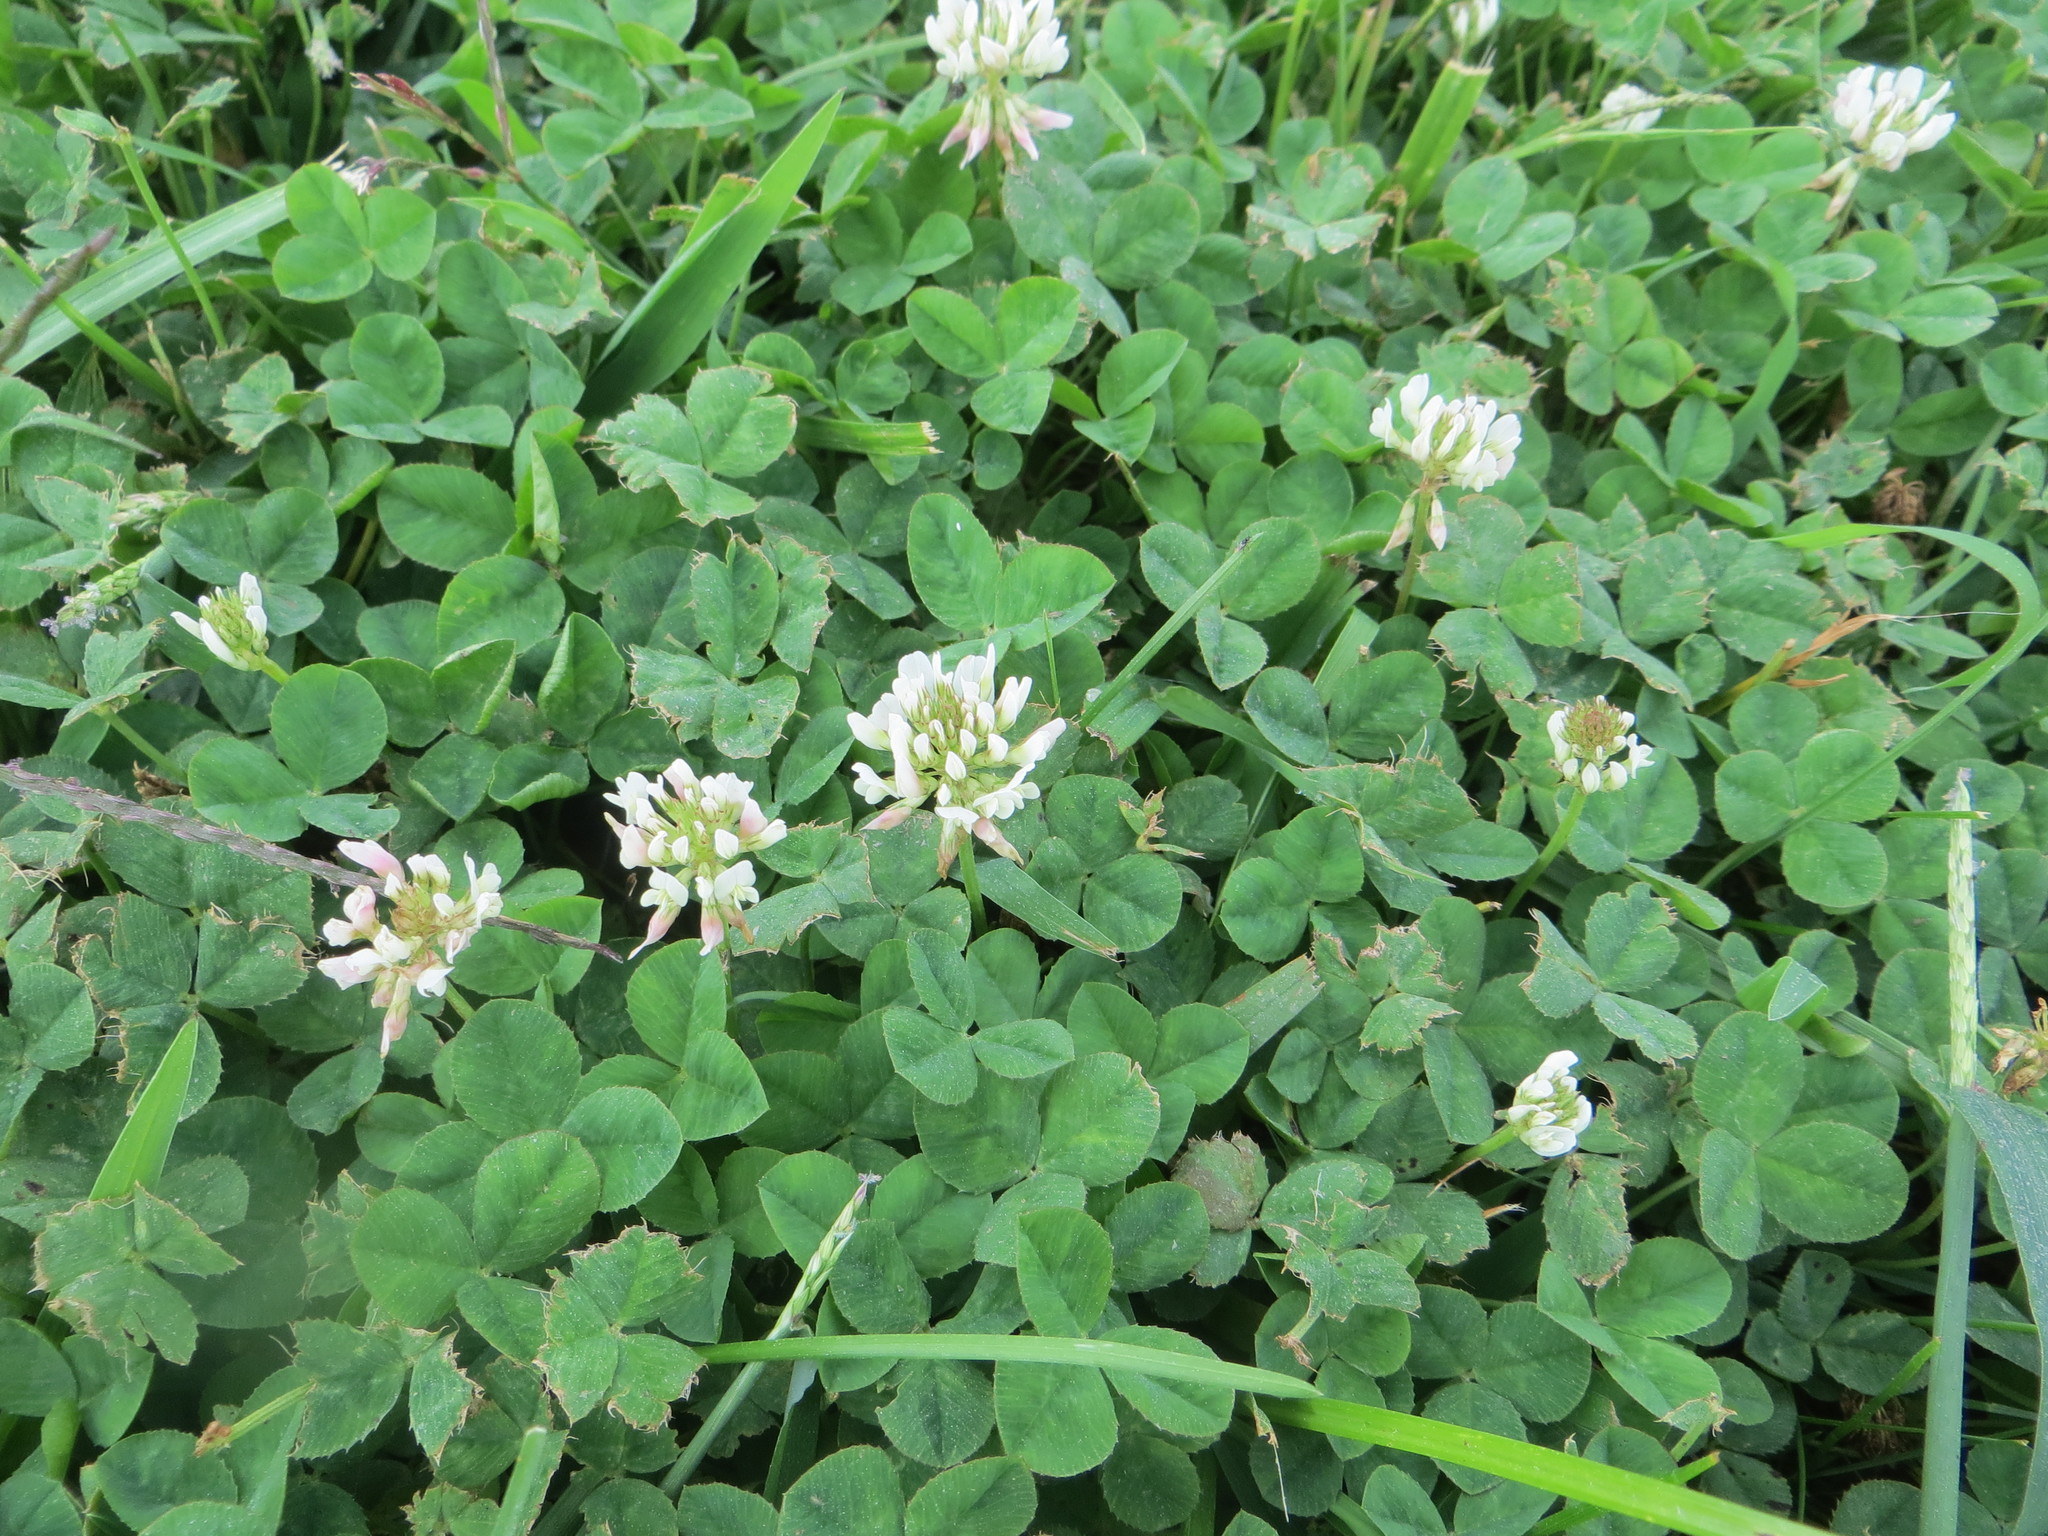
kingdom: Plantae
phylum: Tracheophyta
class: Magnoliopsida
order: Fabales
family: Fabaceae
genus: Trifolium
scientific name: Trifolium repens
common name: White clover
